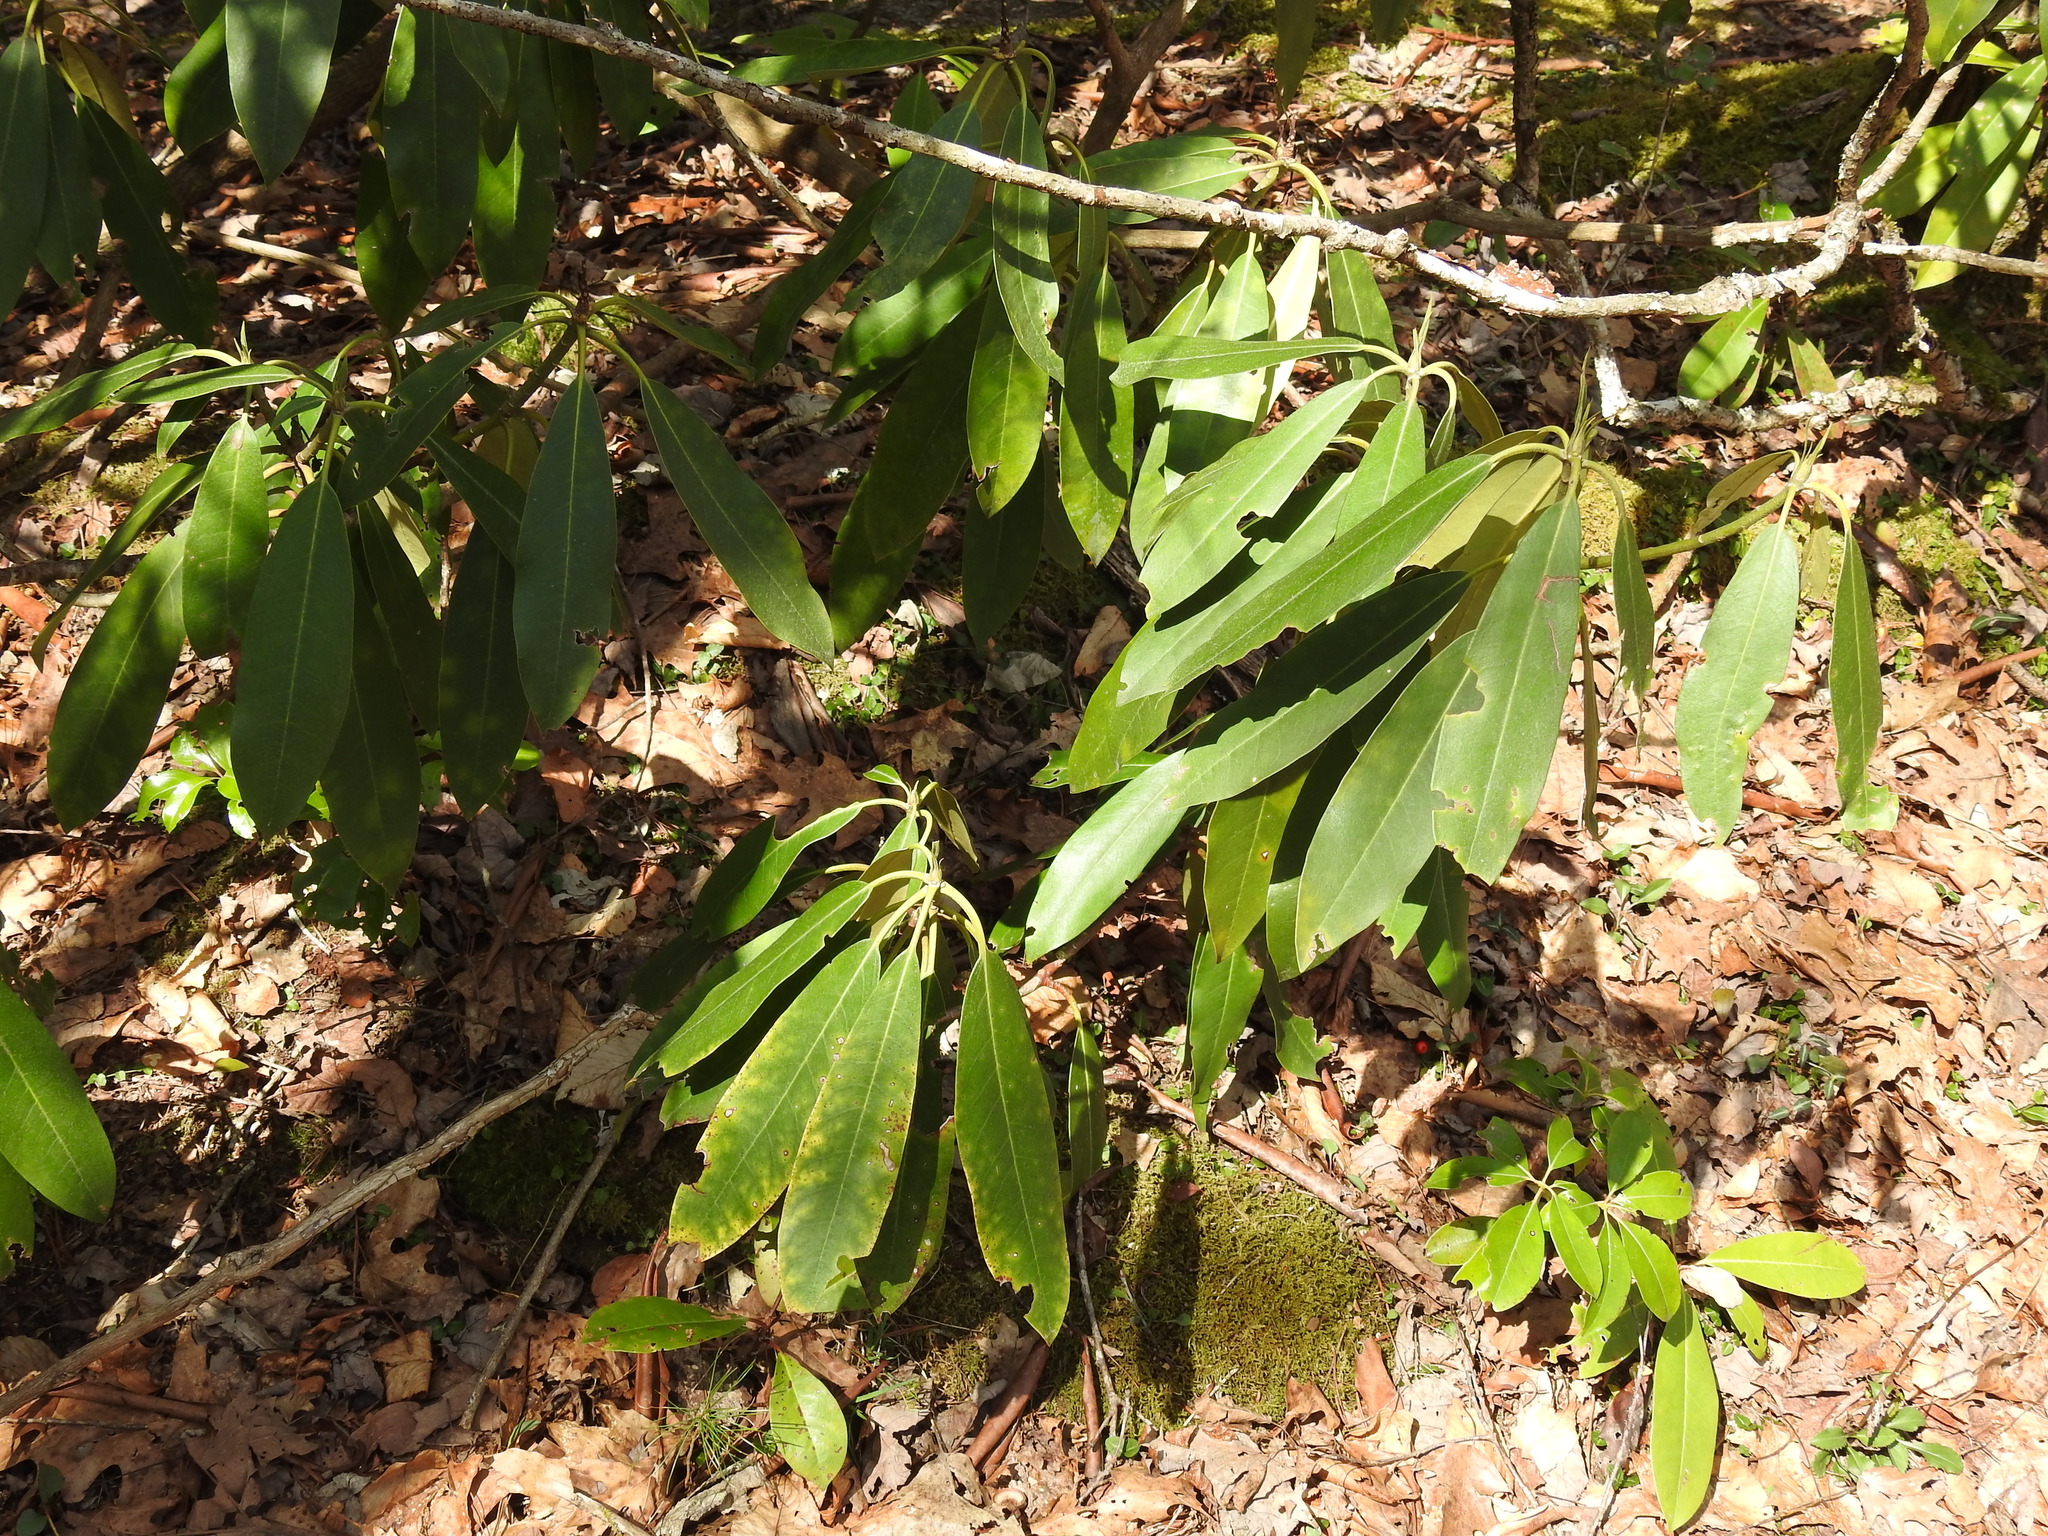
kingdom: Plantae
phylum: Tracheophyta
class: Magnoliopsida
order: Ericales
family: Ericaceae
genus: Rhododendron
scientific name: Rhododendron maximum
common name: Great rhododendron
